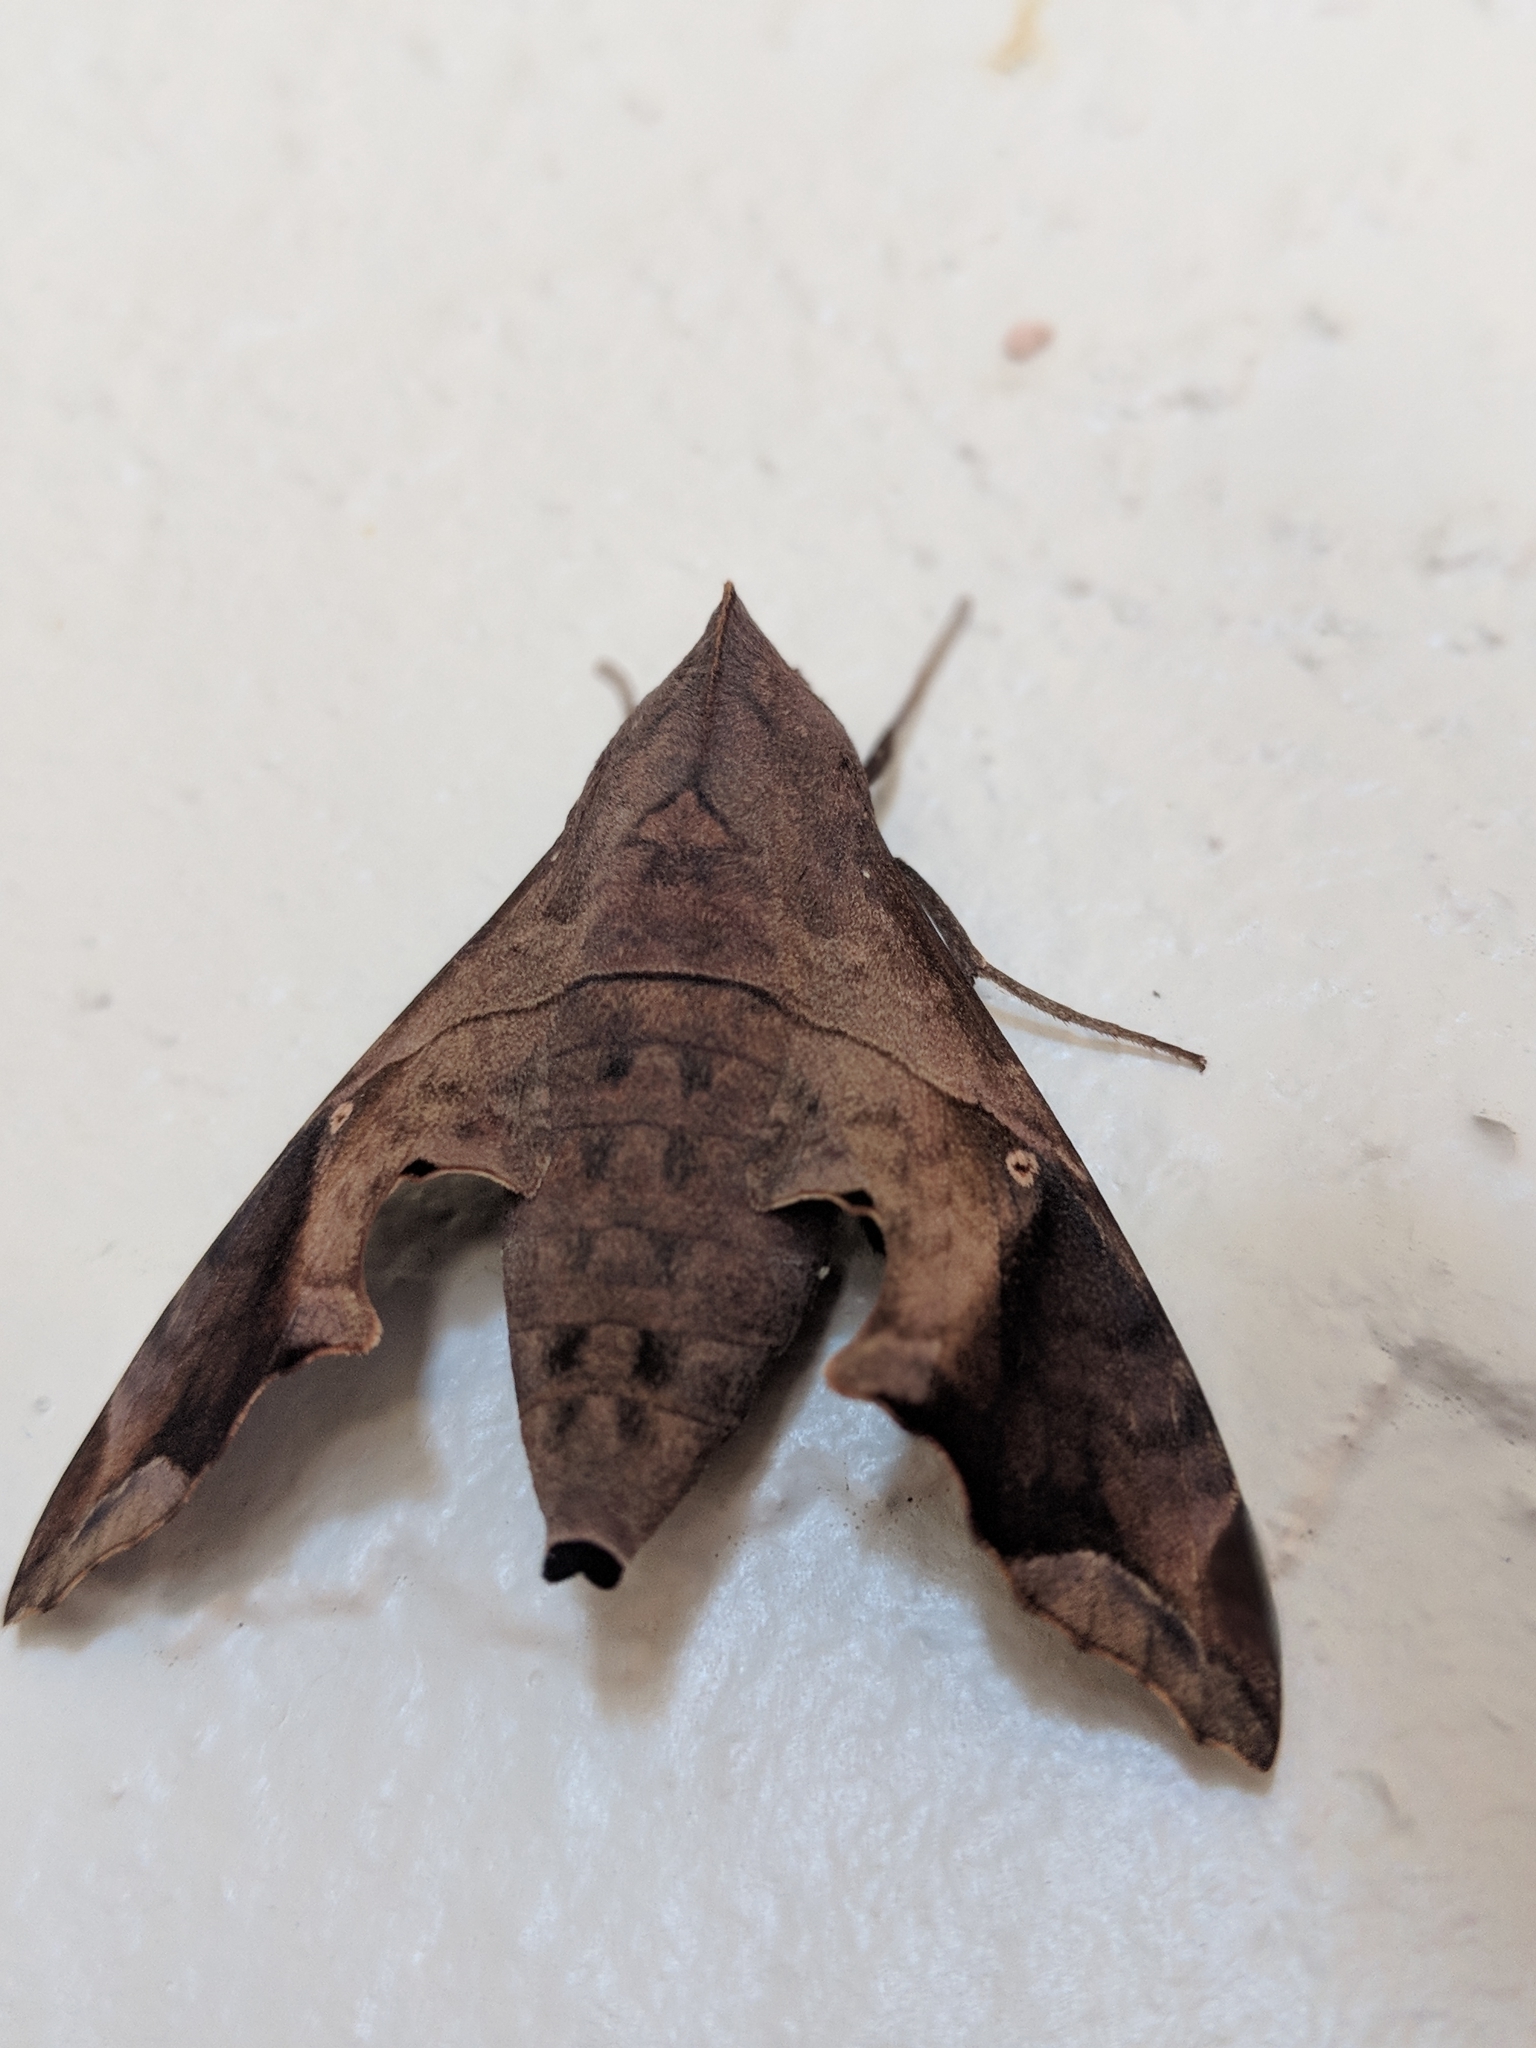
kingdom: Animalia
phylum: Arthropoda
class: Insecta
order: Lepidoptera
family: Sphingidae
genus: Enyo
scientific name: Enyo lugubris
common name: Mournful sphinx
